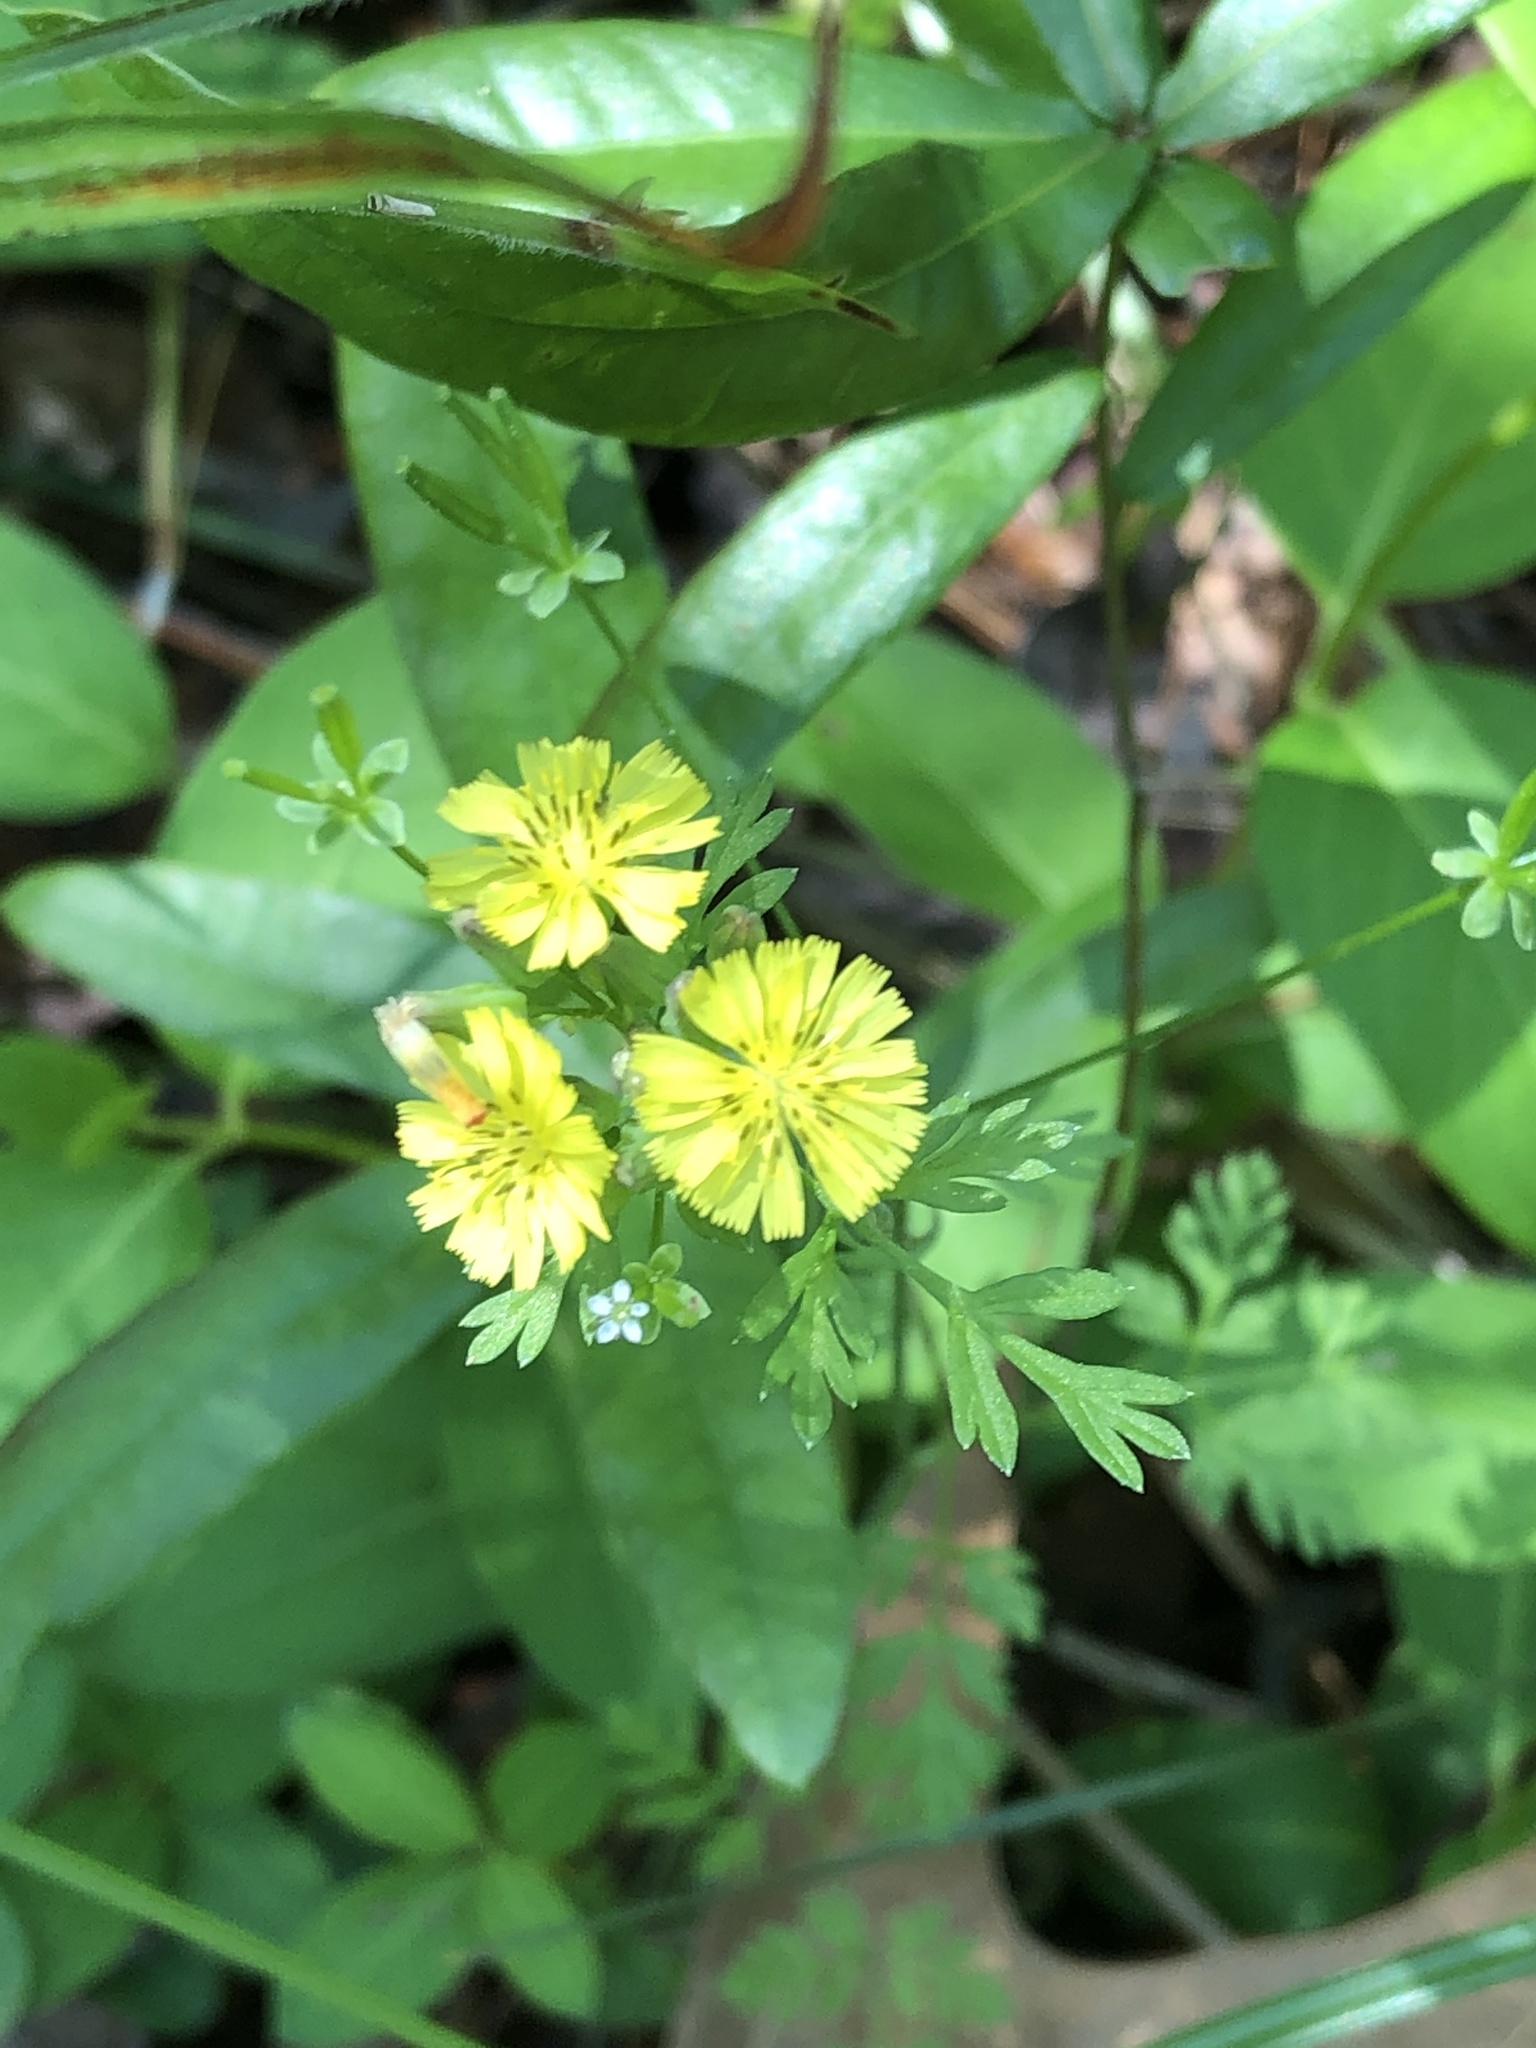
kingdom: Plantae
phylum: Tracheophyta
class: Magnoliopsida
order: Asterales
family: Asteraceae
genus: Youngia
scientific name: Youngia japonica
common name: Oriental false hawksbeard
